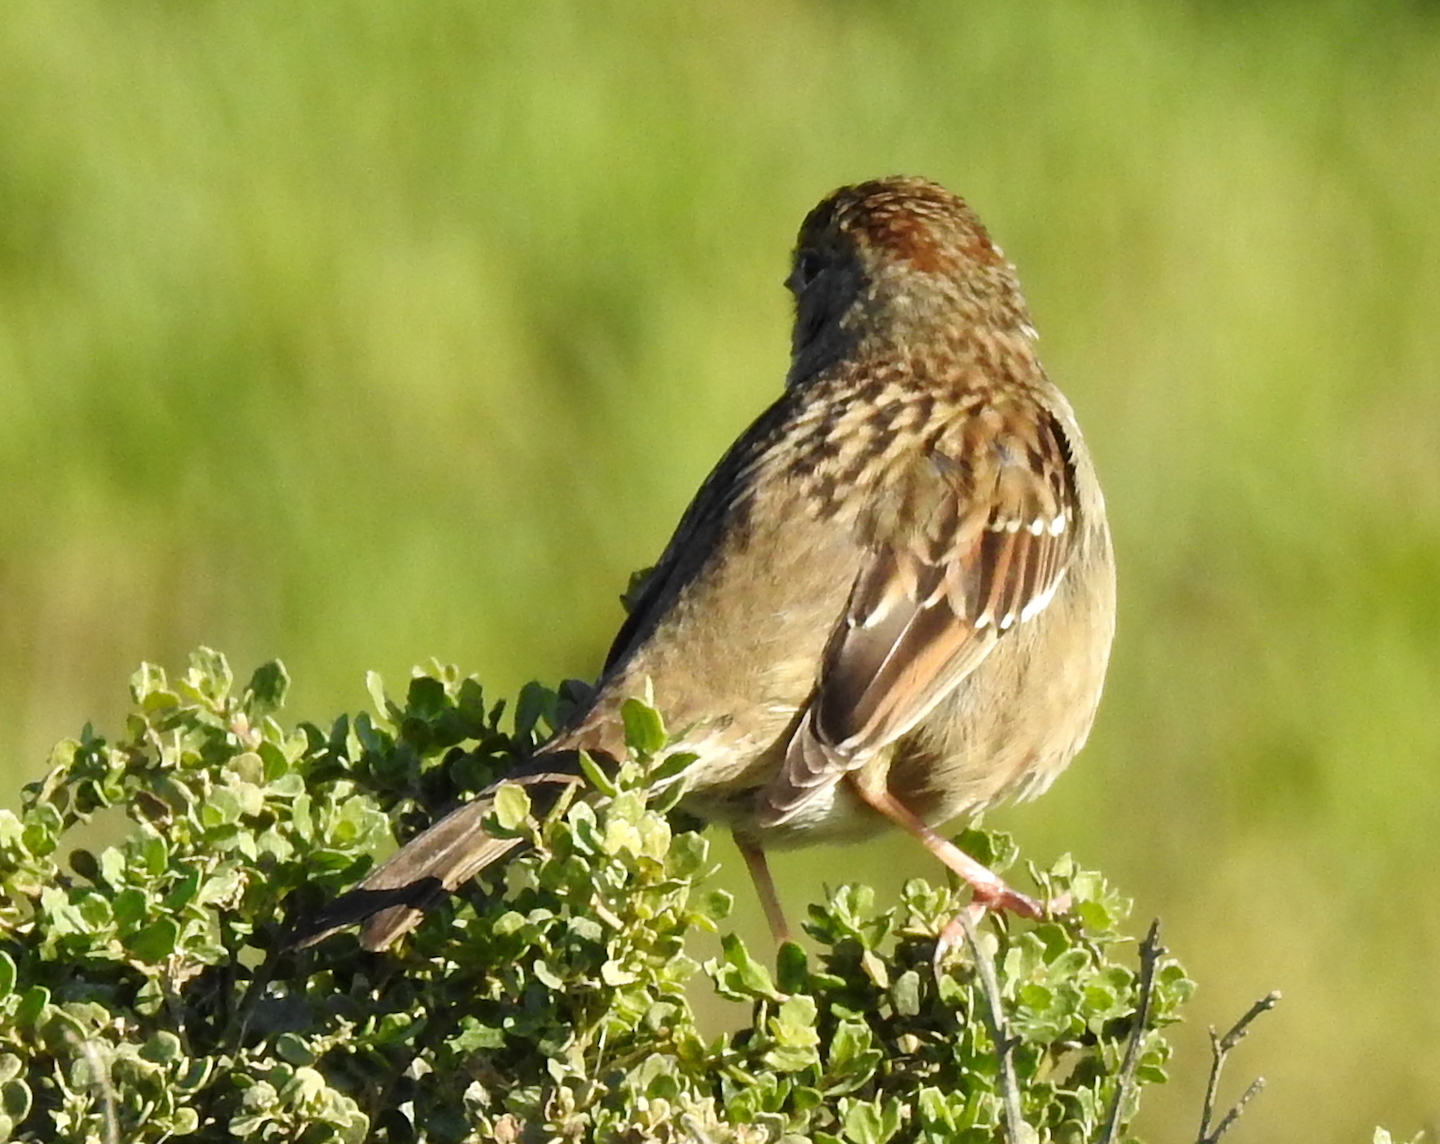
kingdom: Animalia
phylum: Chordata
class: Aves
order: Passeriformes
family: Passerellidae
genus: Zonotrichia
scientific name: Zonotrichia atricapilla
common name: Golden-crowned sparrow
